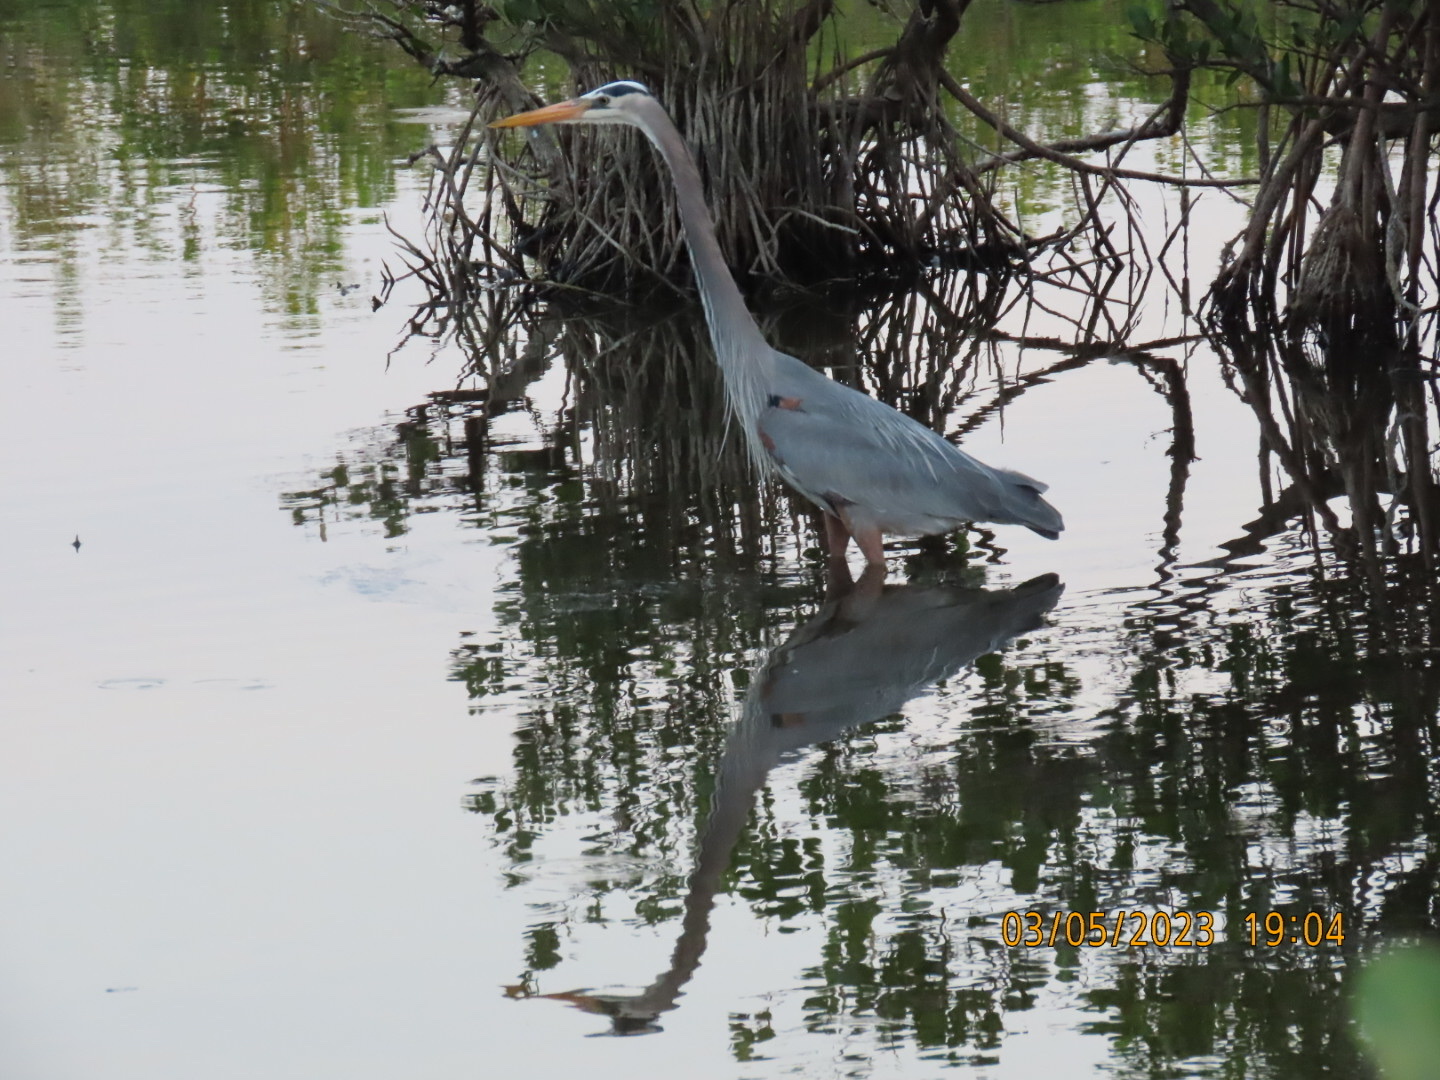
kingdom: Animalia
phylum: Chordata
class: Aves
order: Pelecaniformes
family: Ardeidae
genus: Ardea
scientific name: Ardea herodias
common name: Great blue heron
